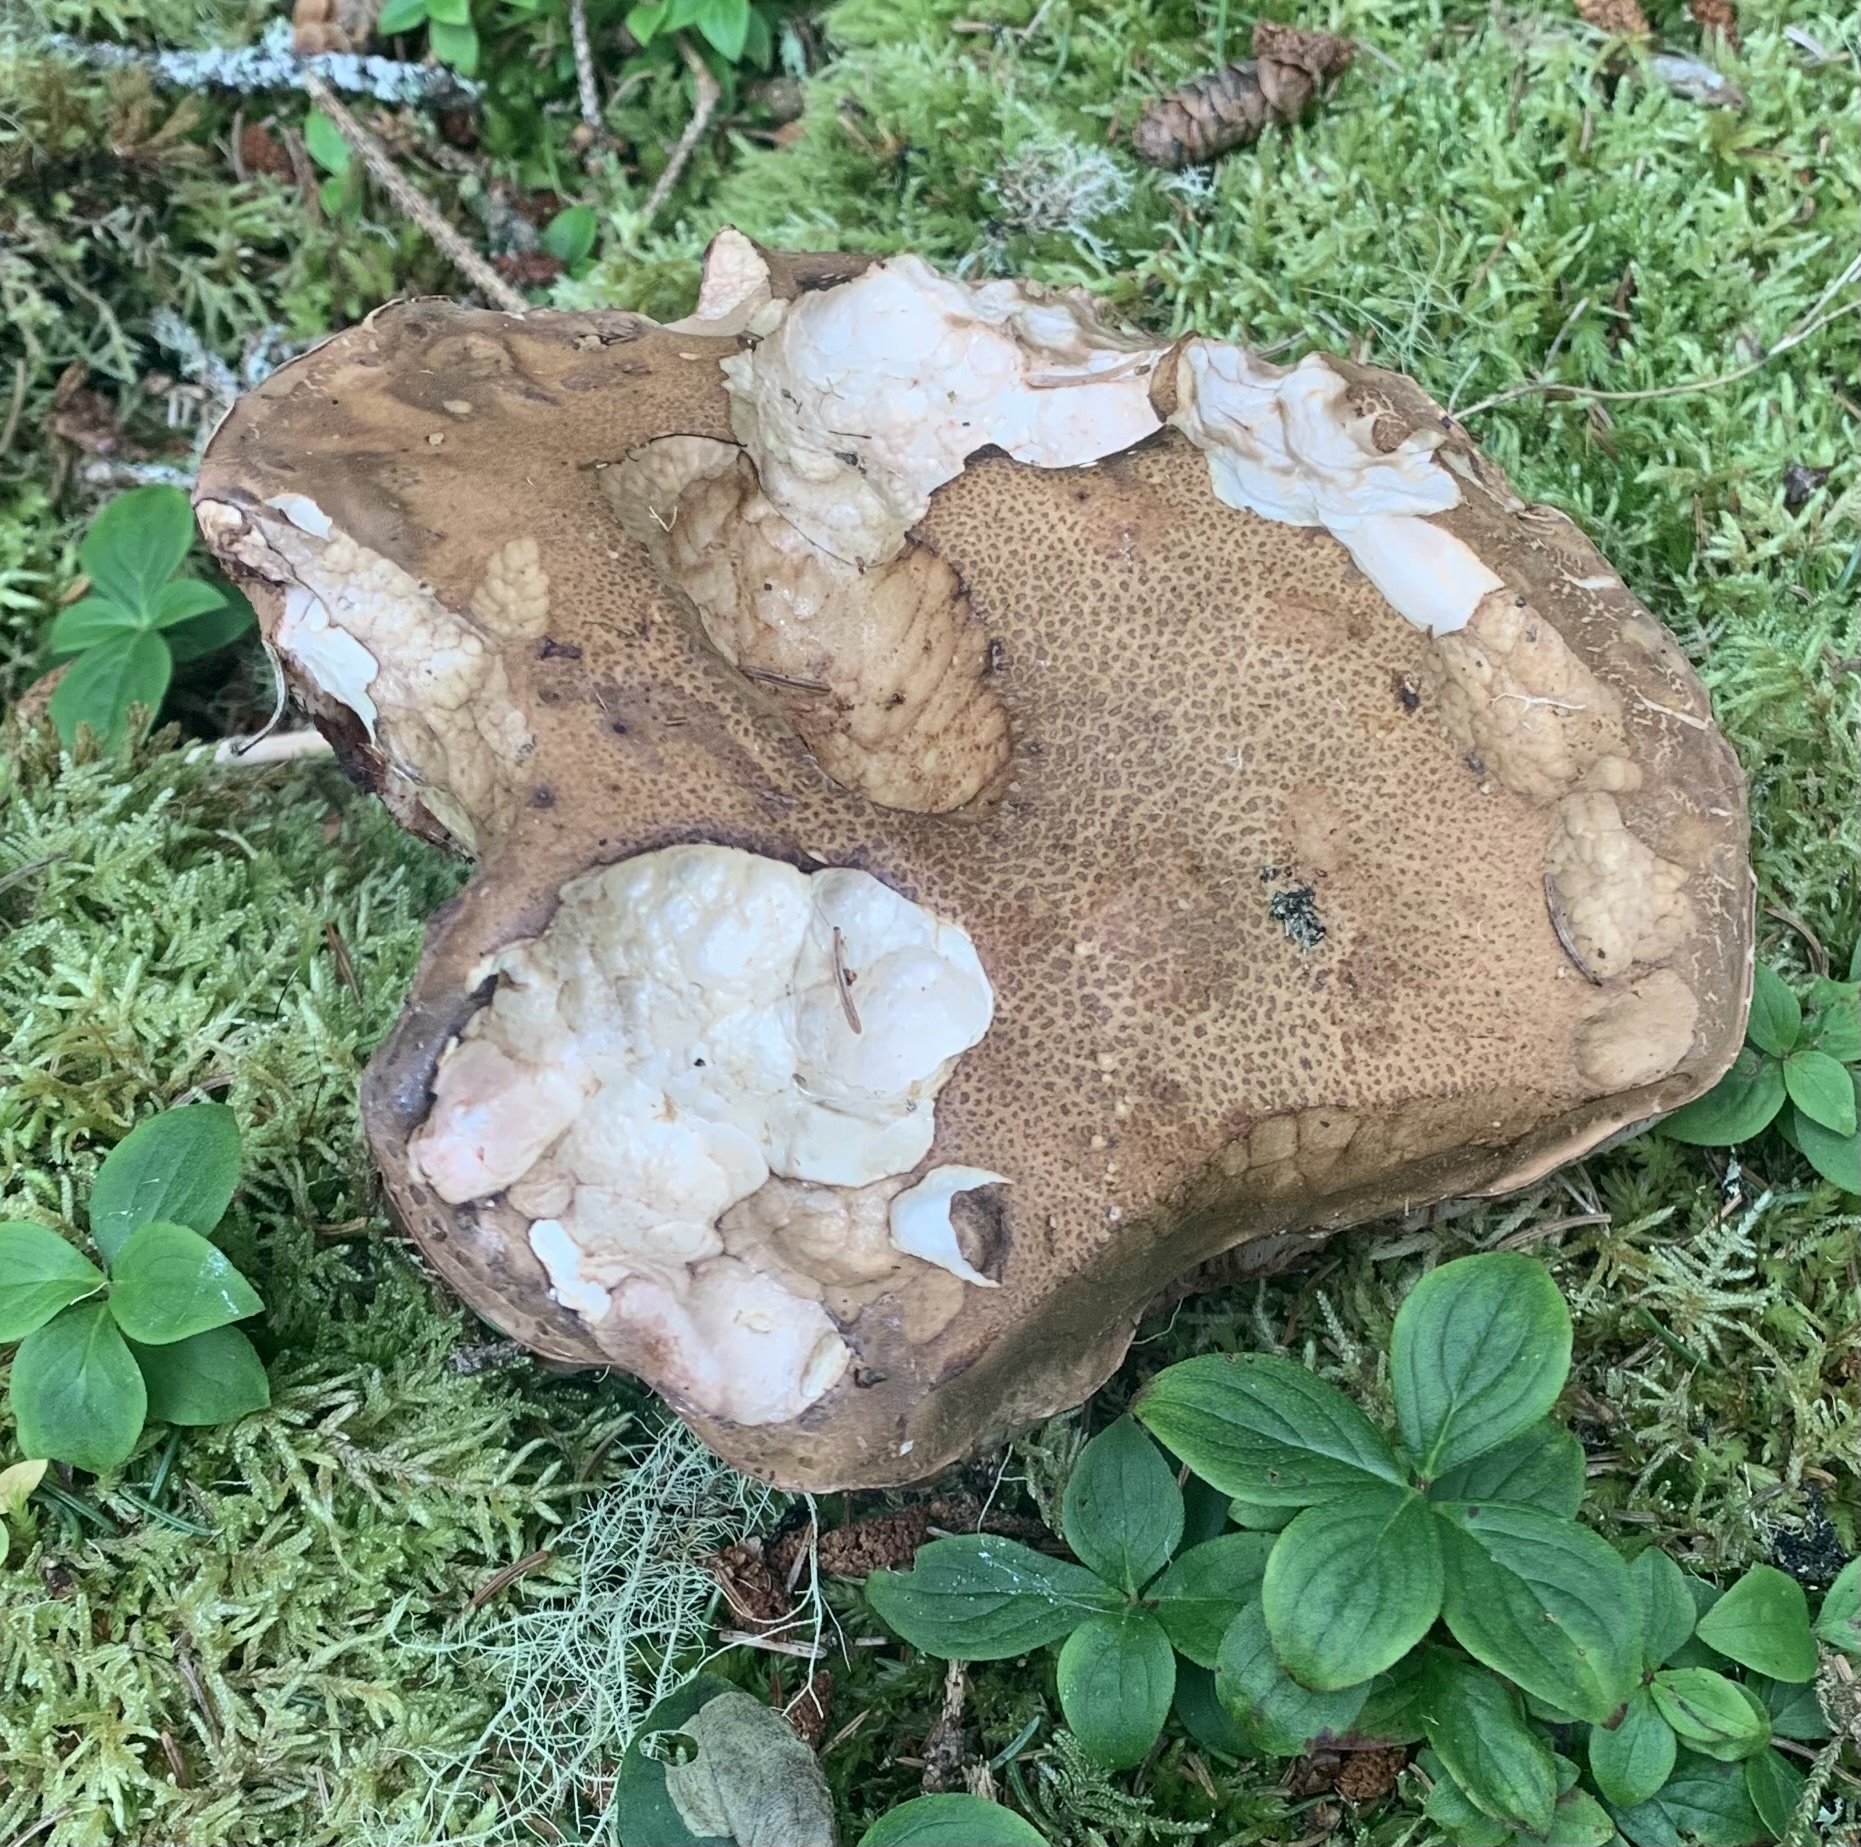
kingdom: Fungi
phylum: Basidiomycota
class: Agaricomycetes
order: Boletales
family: Boletaceae
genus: Tylopilus
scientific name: Tylopilus felleus
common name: Bitter bolete
